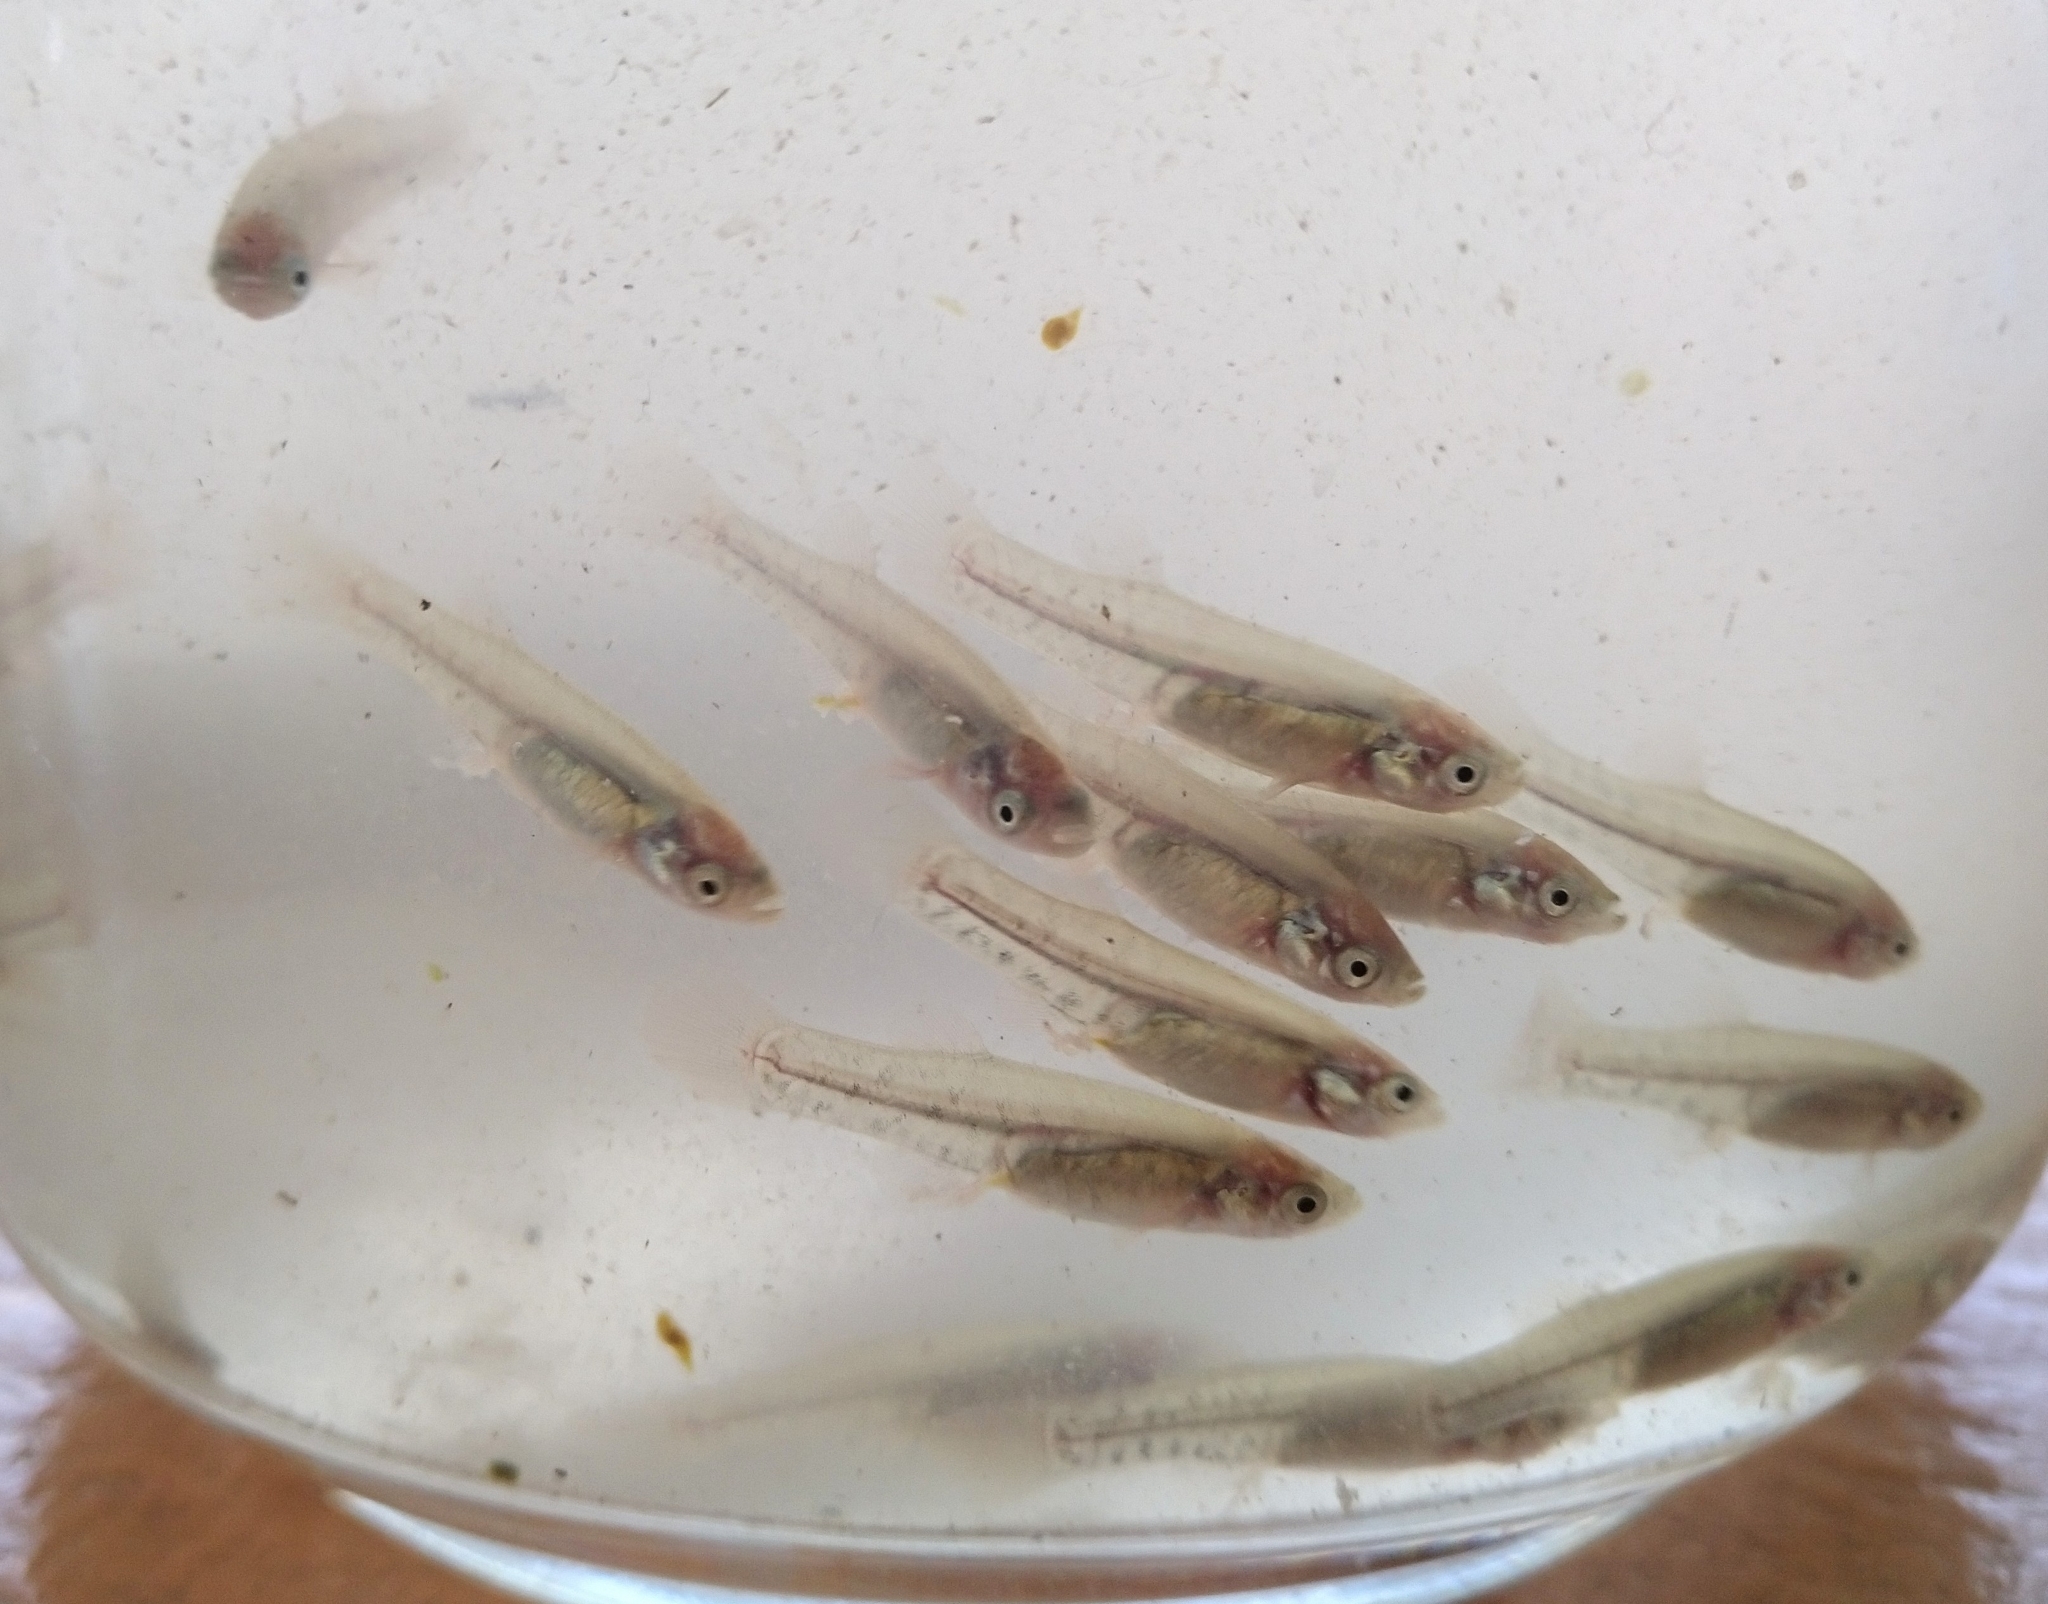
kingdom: Animalia
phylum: Chordata
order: Cyprinodontiformes
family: Goodeidae
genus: Goodea
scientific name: Goodea atripinnis
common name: Blackfin goodea
